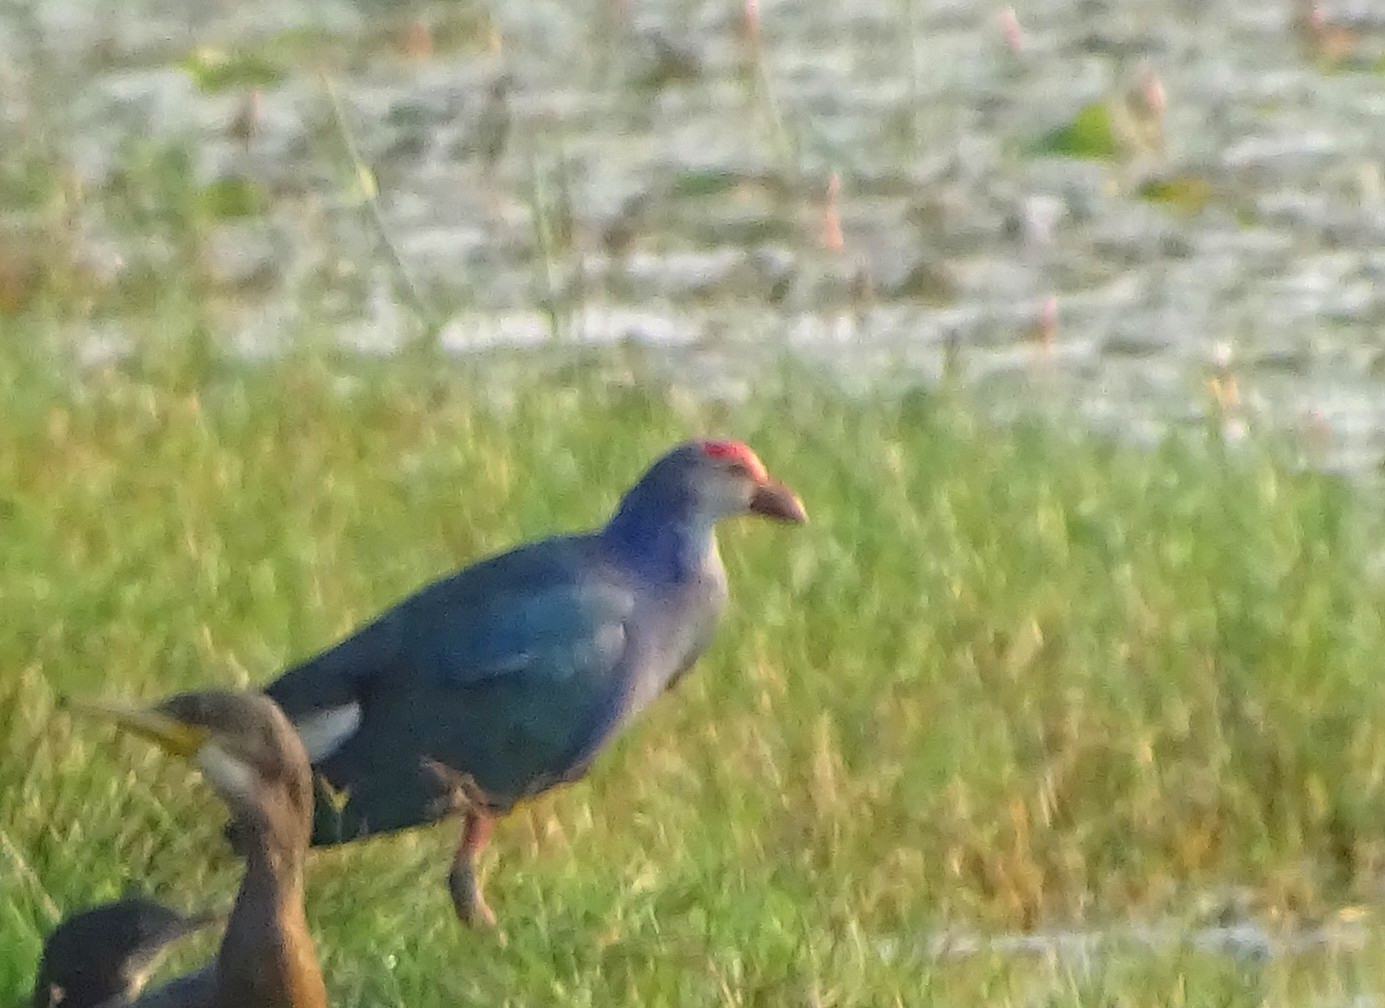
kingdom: Animalia
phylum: Chordata
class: Aves
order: Gruiformes
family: Rallidae
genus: Porphyrio
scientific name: Porphyrio porphyrio
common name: Purple swamphen
